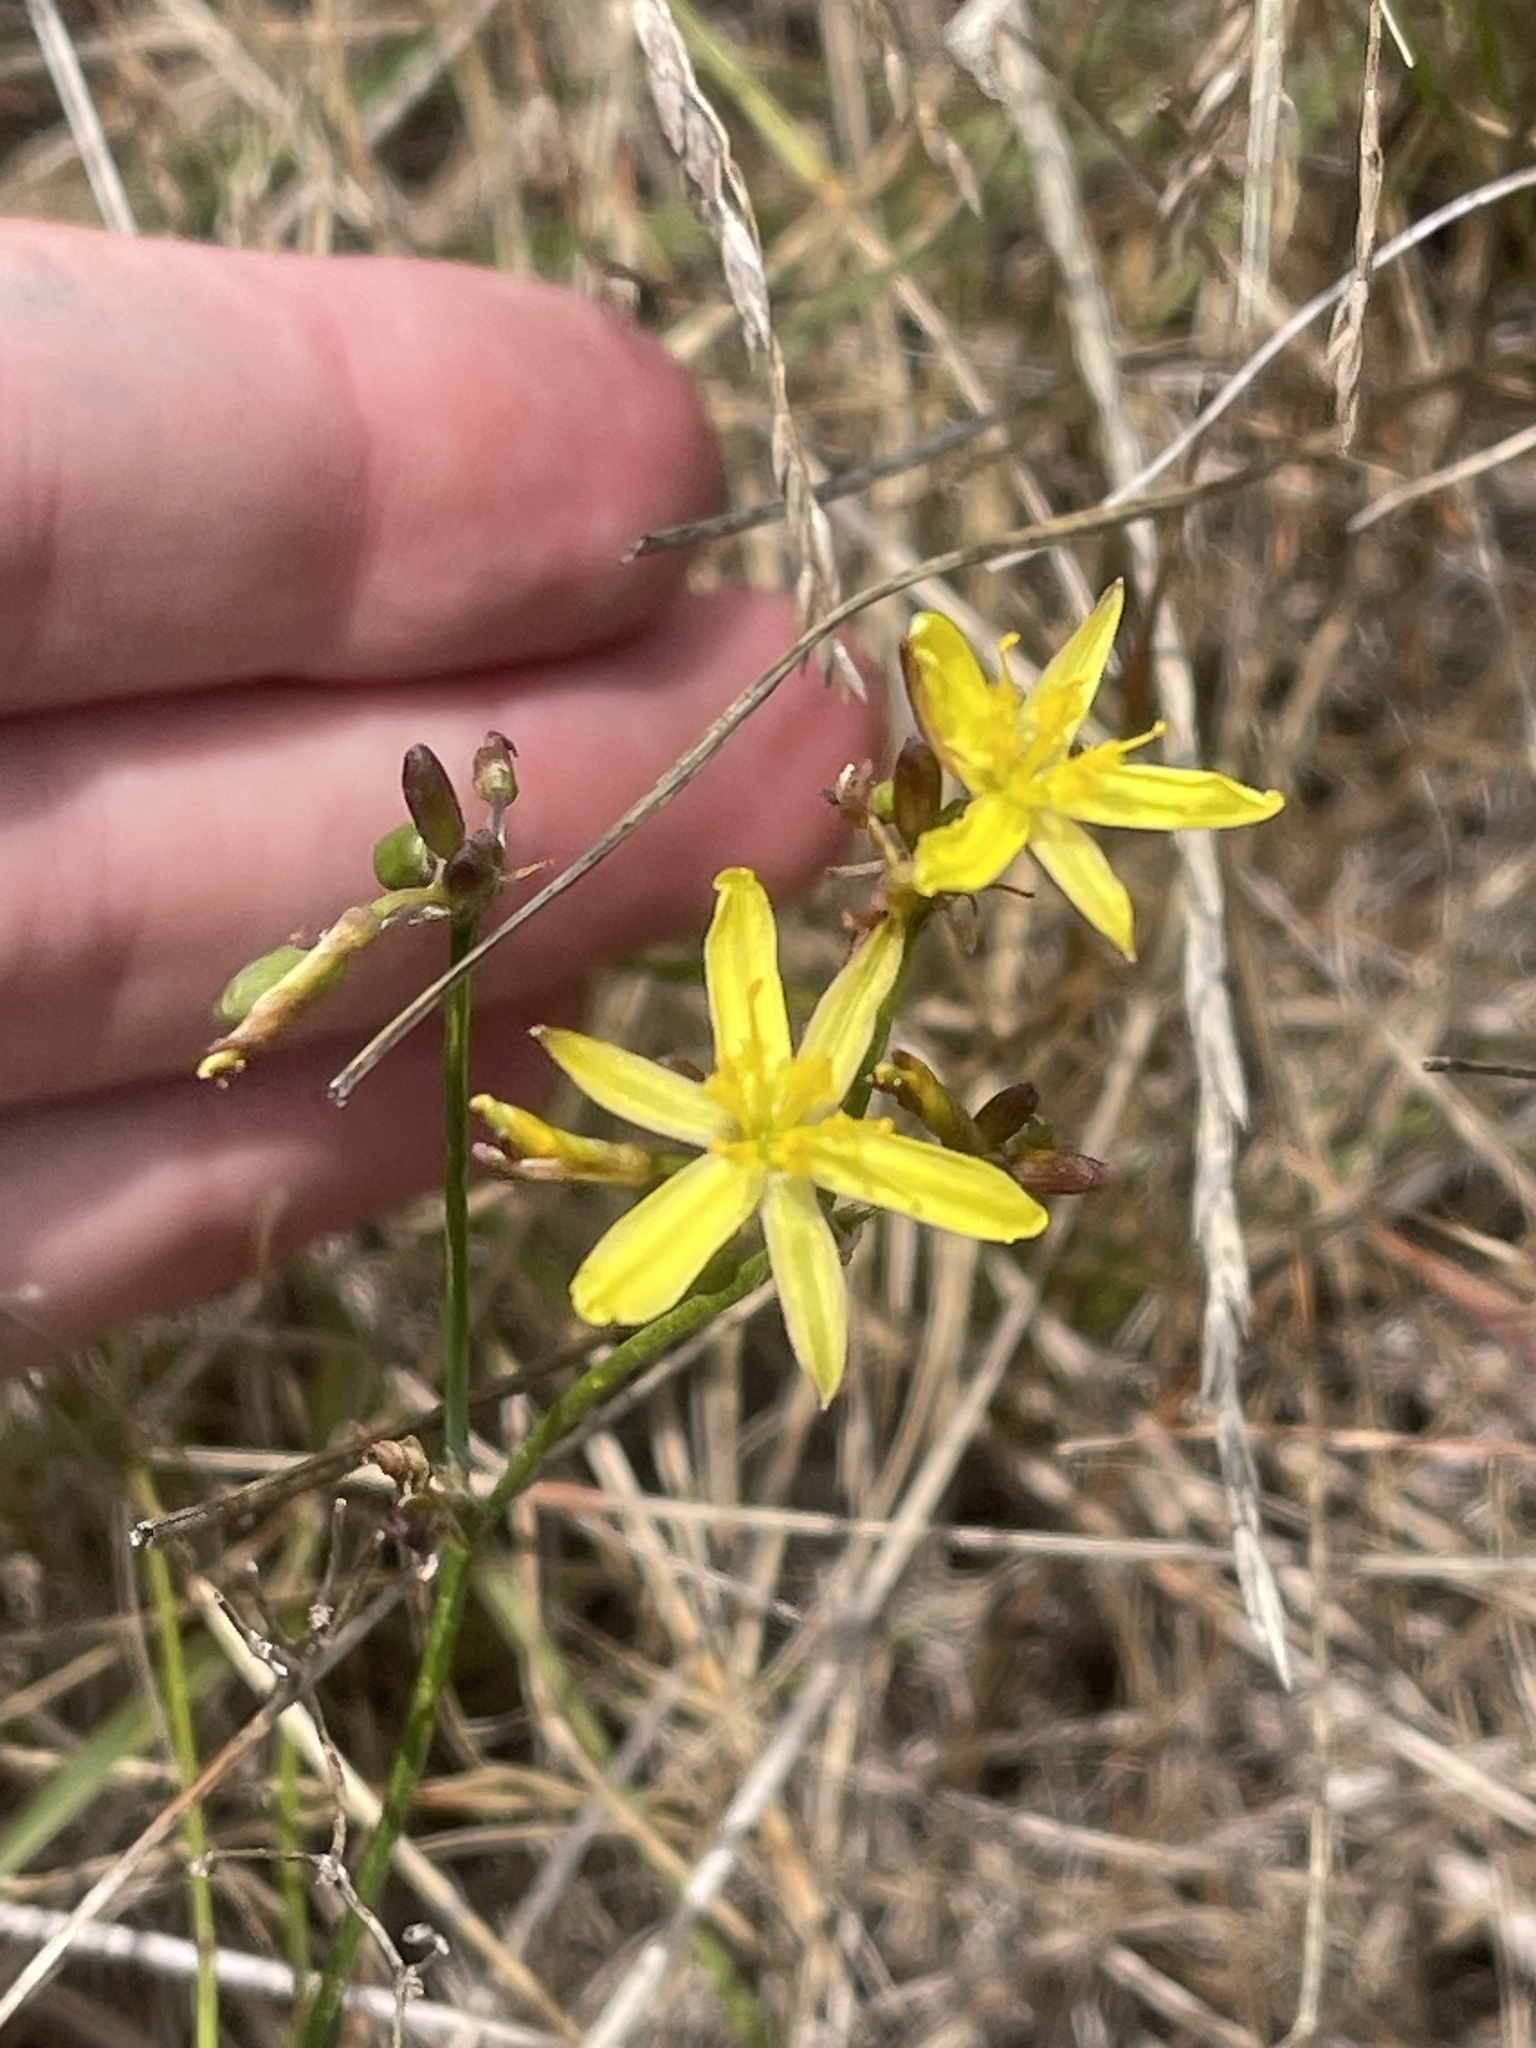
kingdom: Plantae
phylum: Tracheophyta
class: Liliopsida
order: Asparagales
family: Asphodelaceae
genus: Tricoryne
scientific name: Tricoryne elatior
